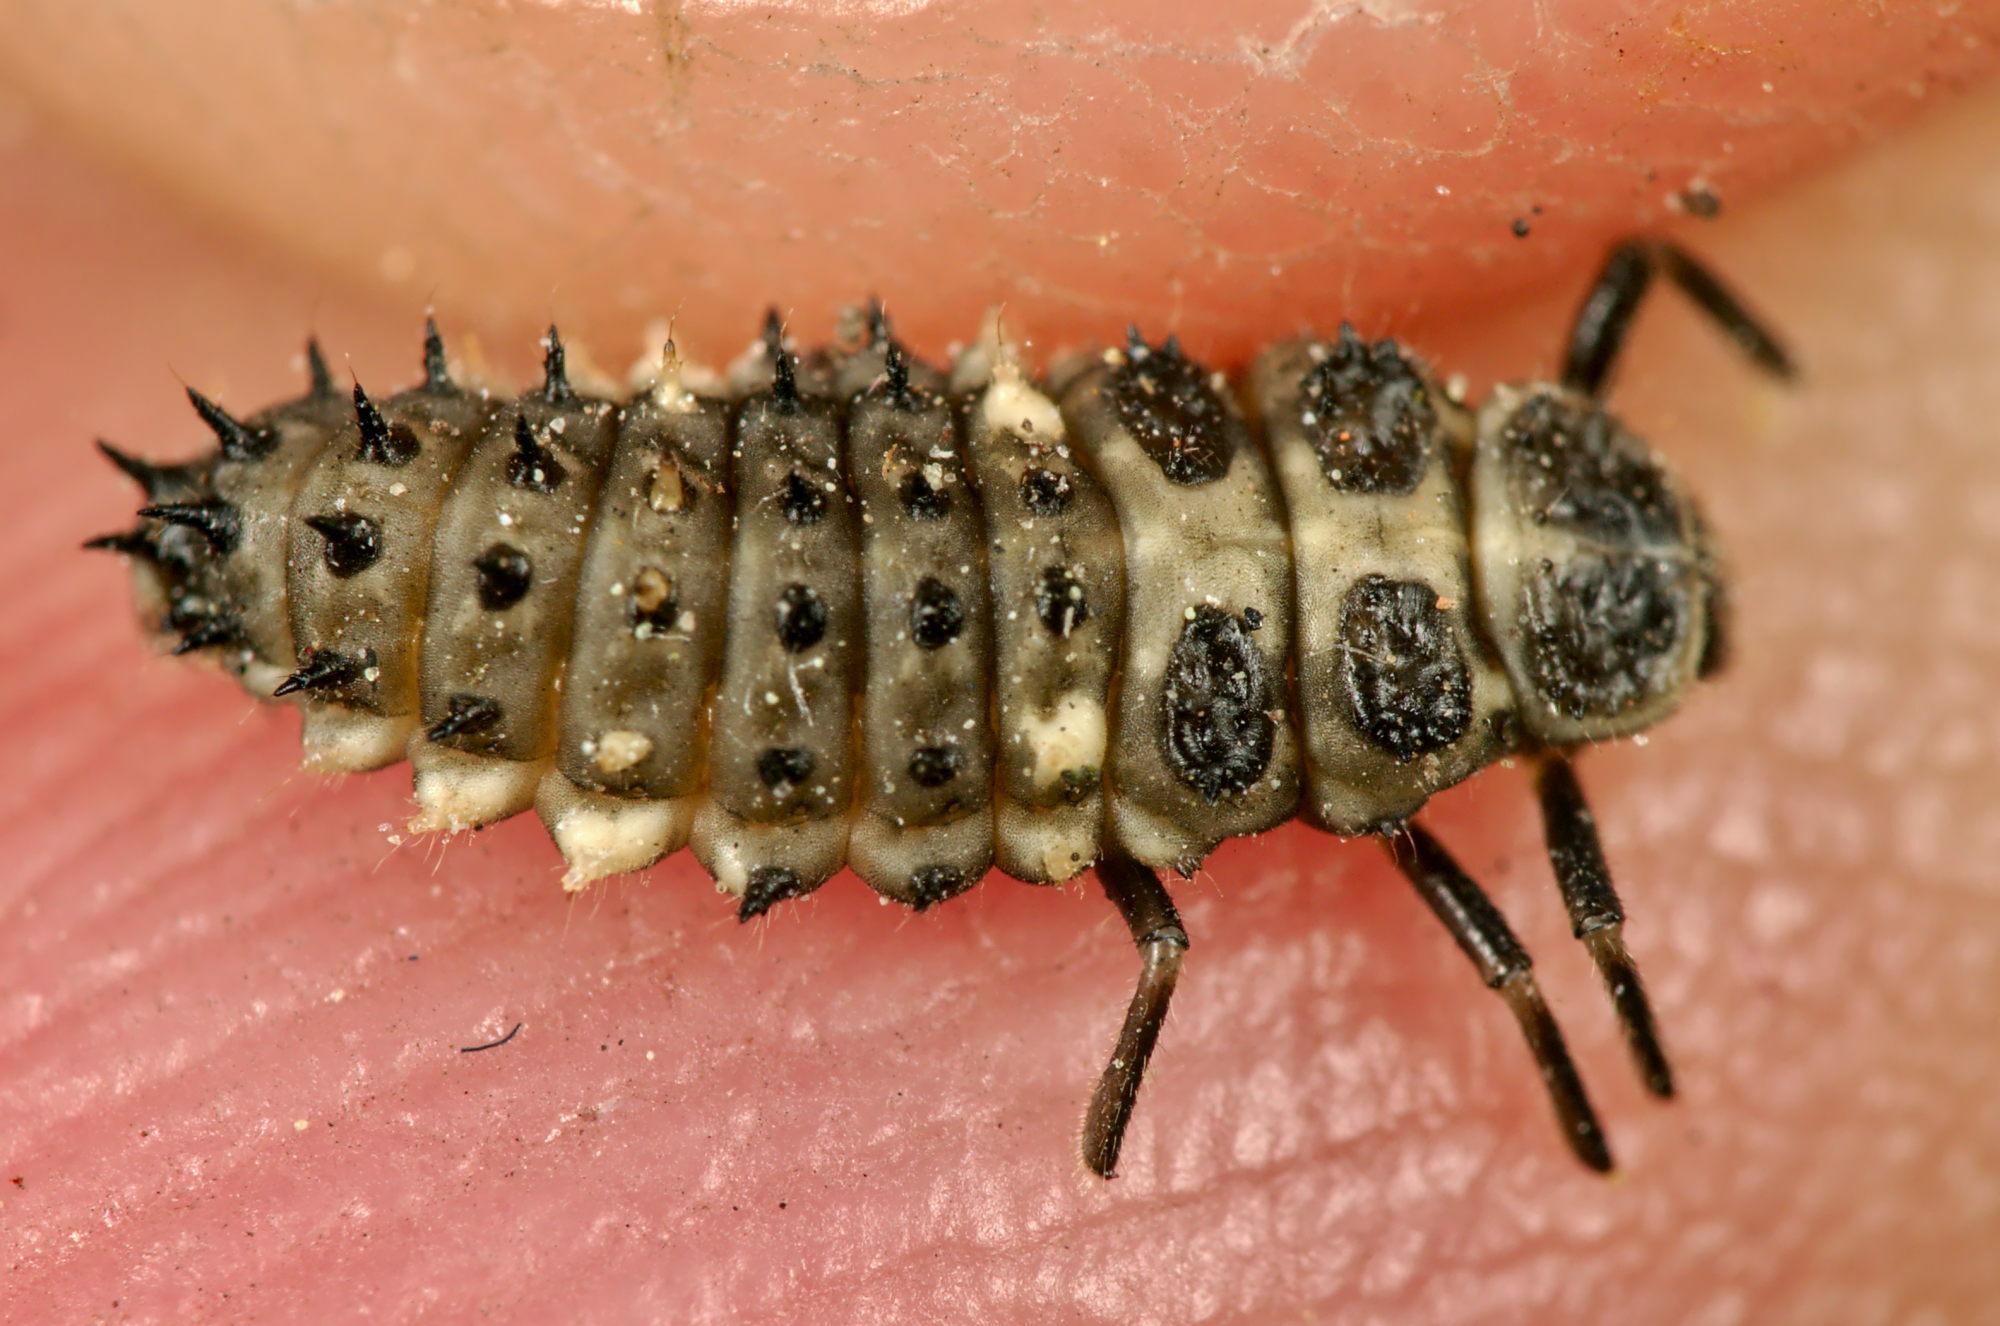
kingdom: Animalia
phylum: Arthropoda
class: Insecta
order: Coleoptera
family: Coccinellidae
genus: Calvia
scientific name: Calvia quatuordecimguttata
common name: Cream-spot ladybird
